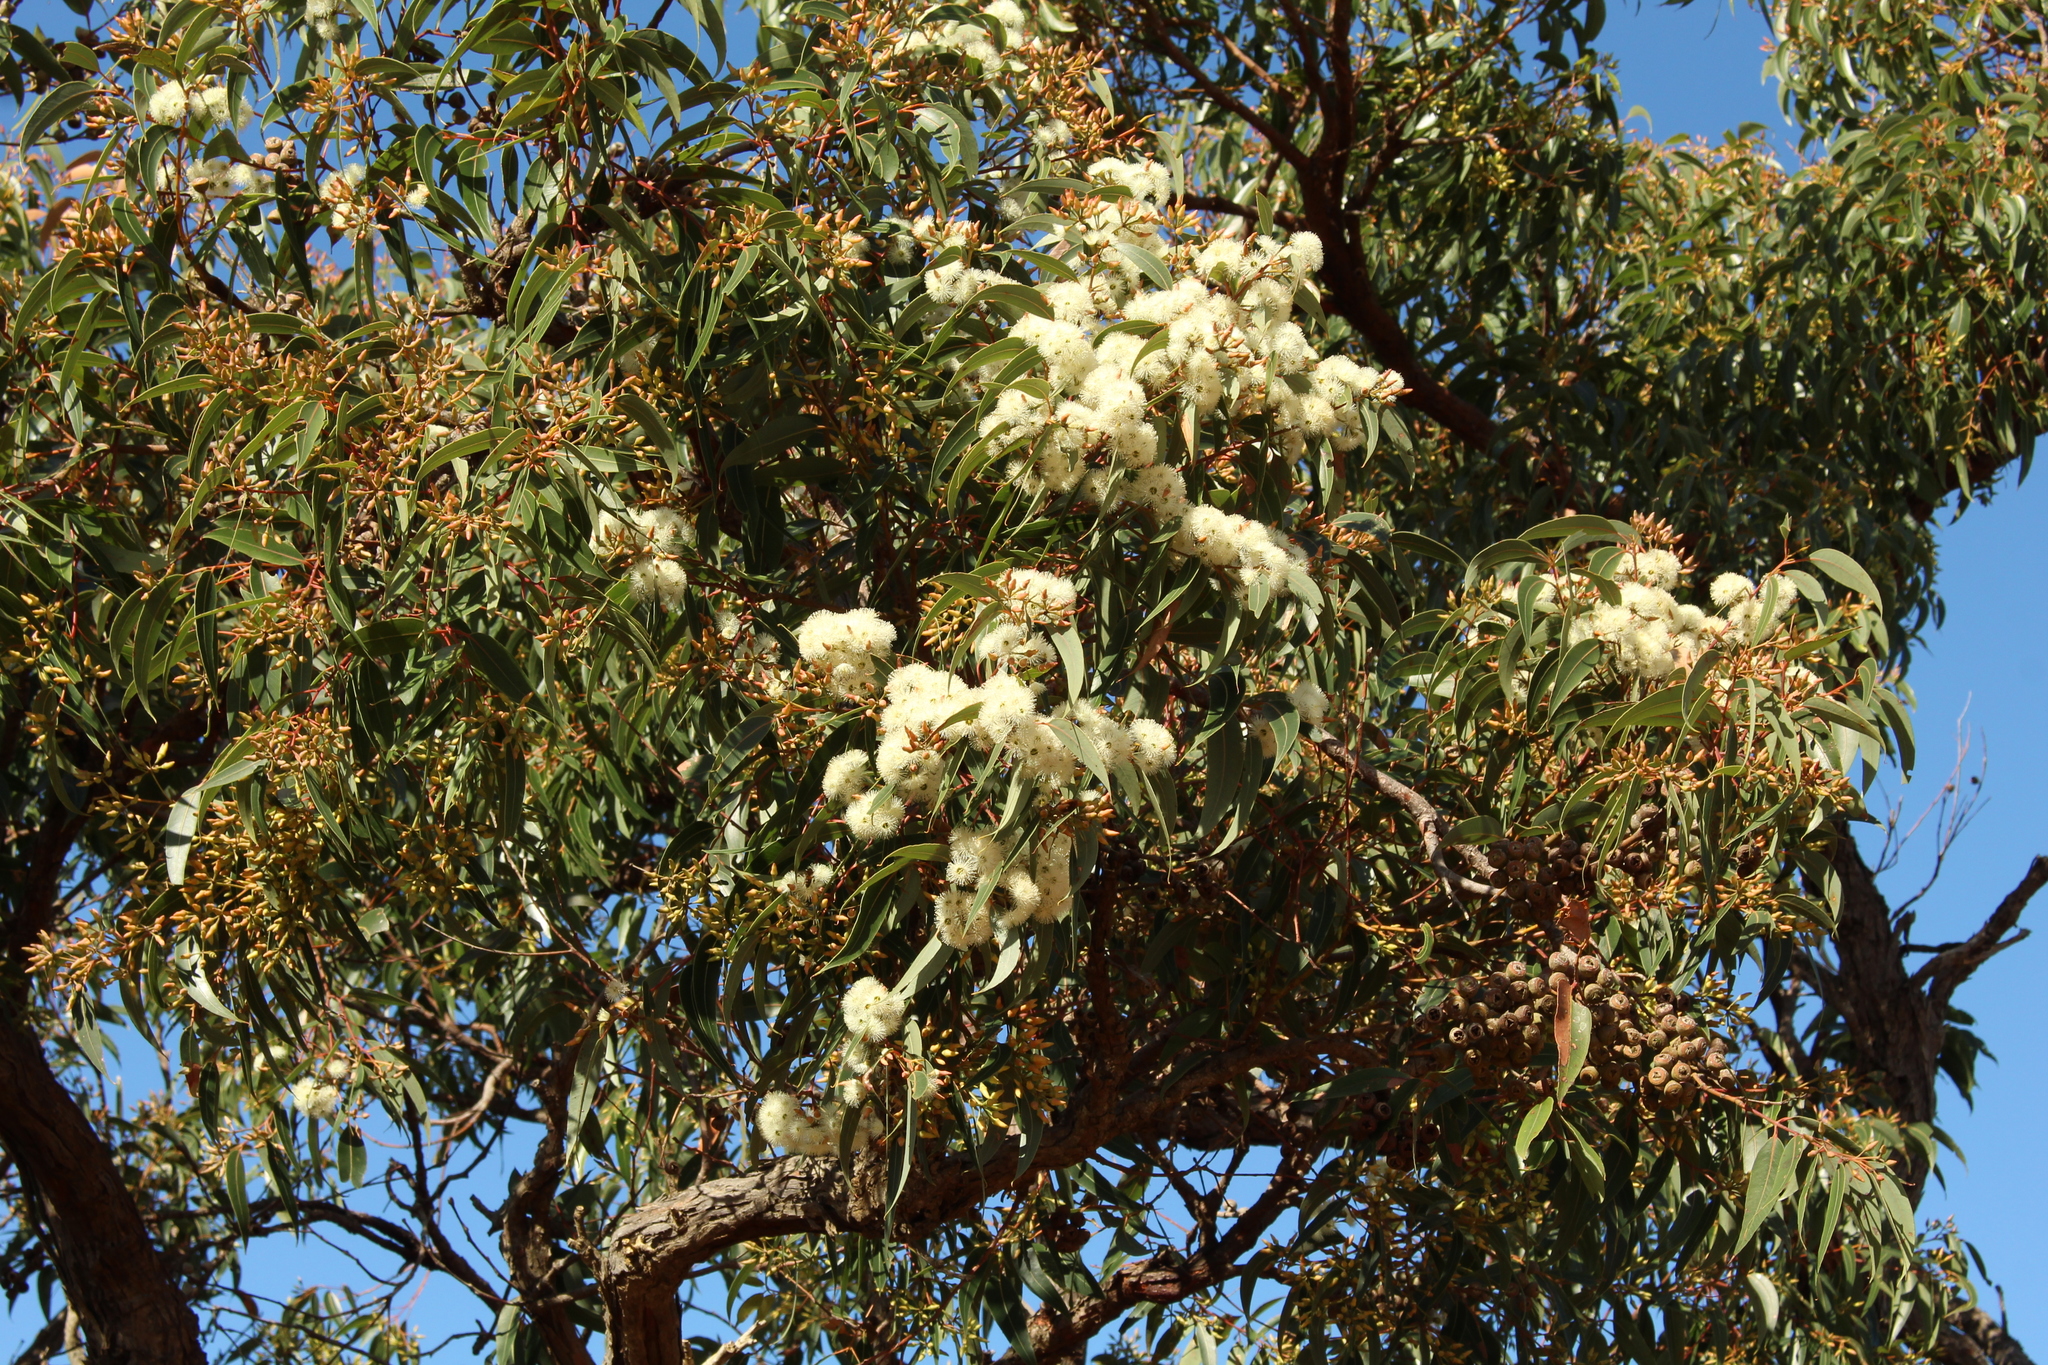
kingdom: Plantae
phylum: Tracheophyta
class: Magnoliopsida
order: Myrtales
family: Myrtaceae
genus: Eucalyptus
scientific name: Eucalyptus marginata
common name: Jarrah
